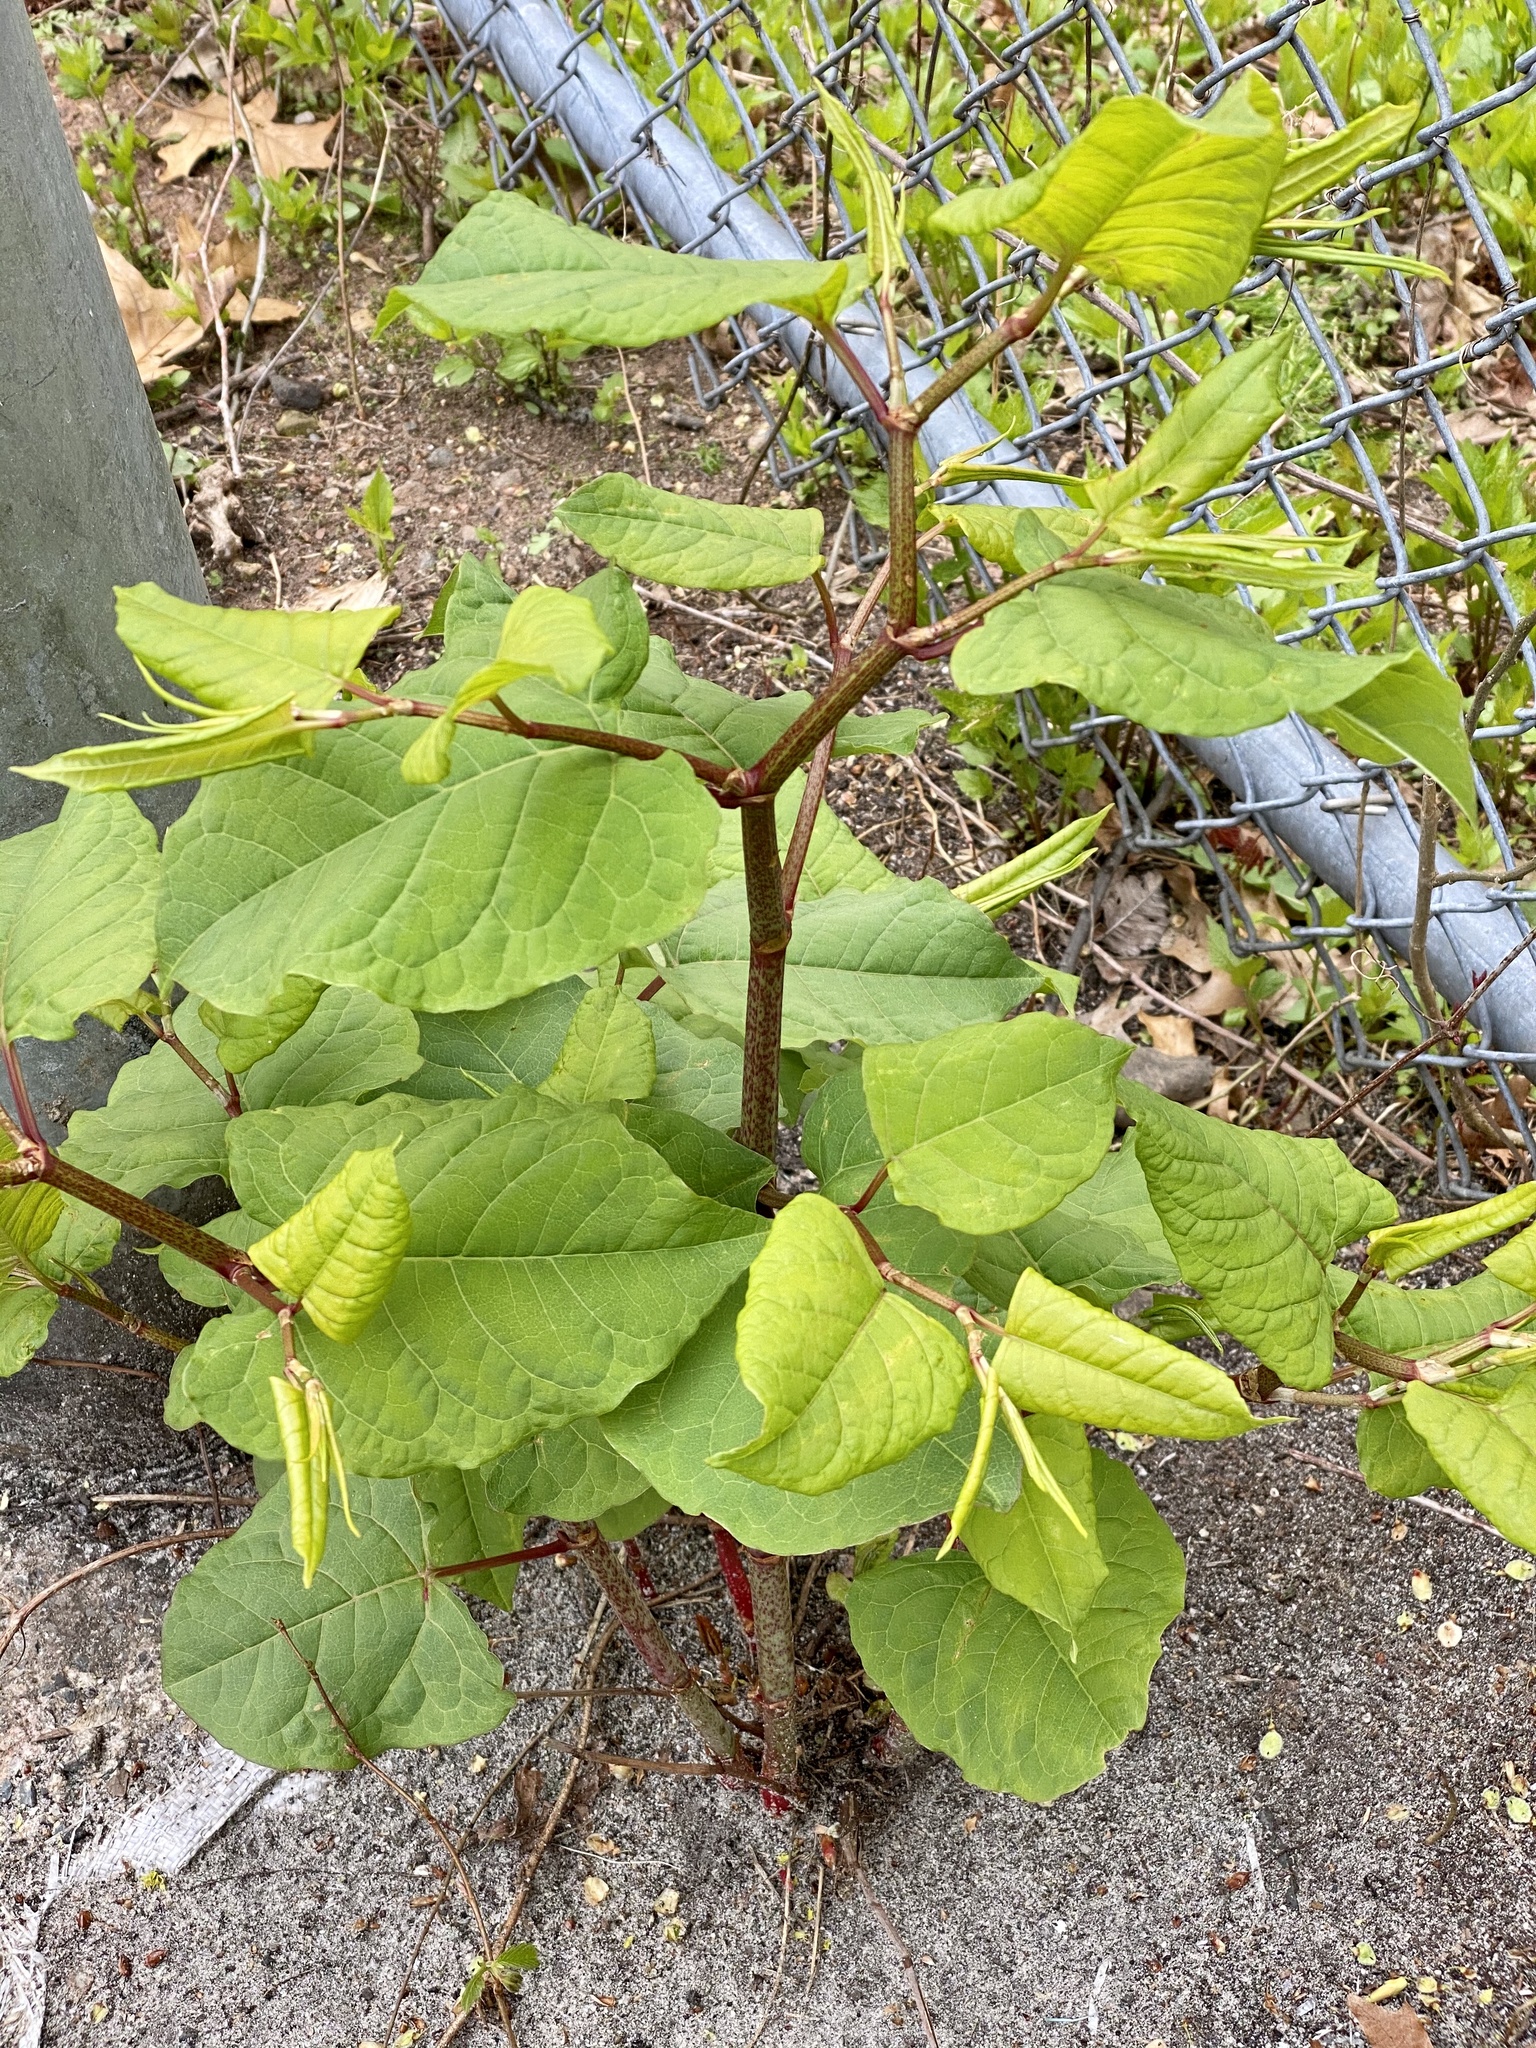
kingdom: Plantae
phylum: Tracheophyta
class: Magnoliopsida
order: Caryophyllales
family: Polygonaceae
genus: Reynoutria
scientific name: Reynoutria japonica
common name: Japanese knotweed
